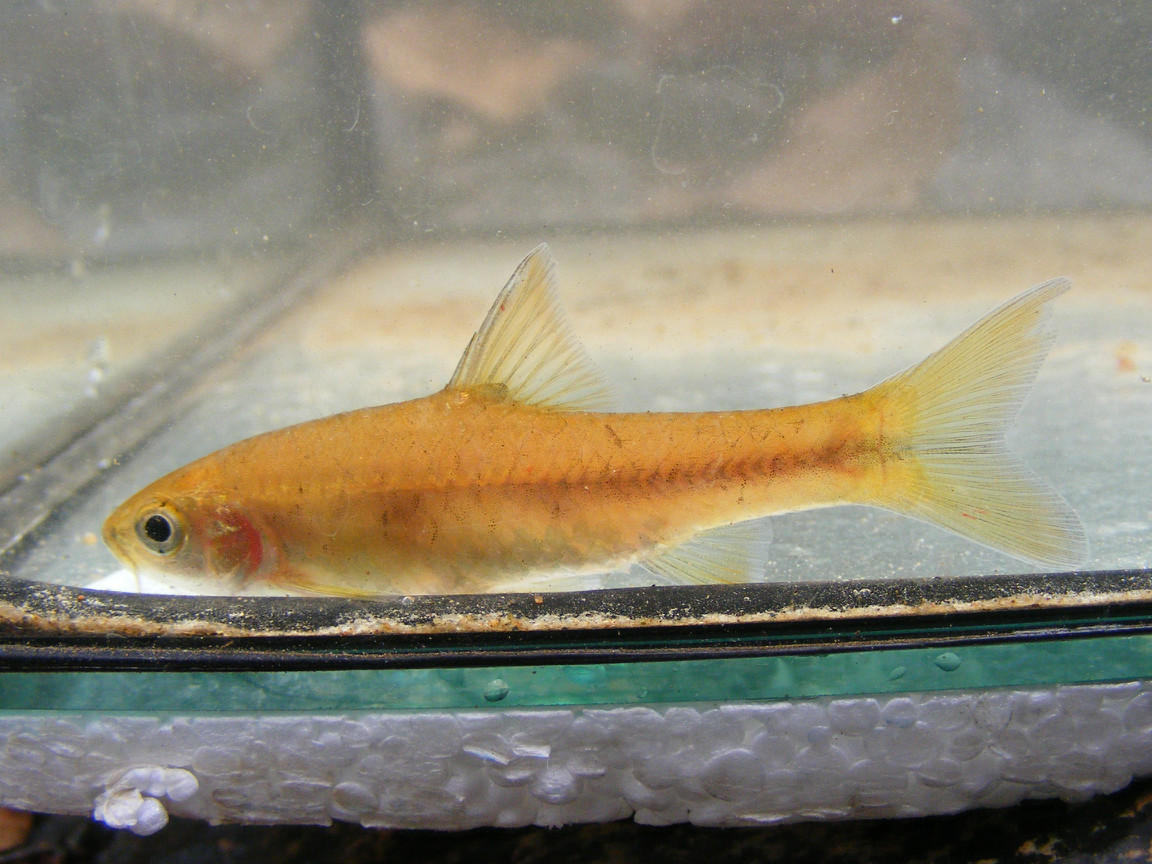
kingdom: Animalia
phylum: Chordata
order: Cypriniformes
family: Cyprinidae
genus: Enteromius
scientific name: Enteromius eutaenia
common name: Orangefin barb
